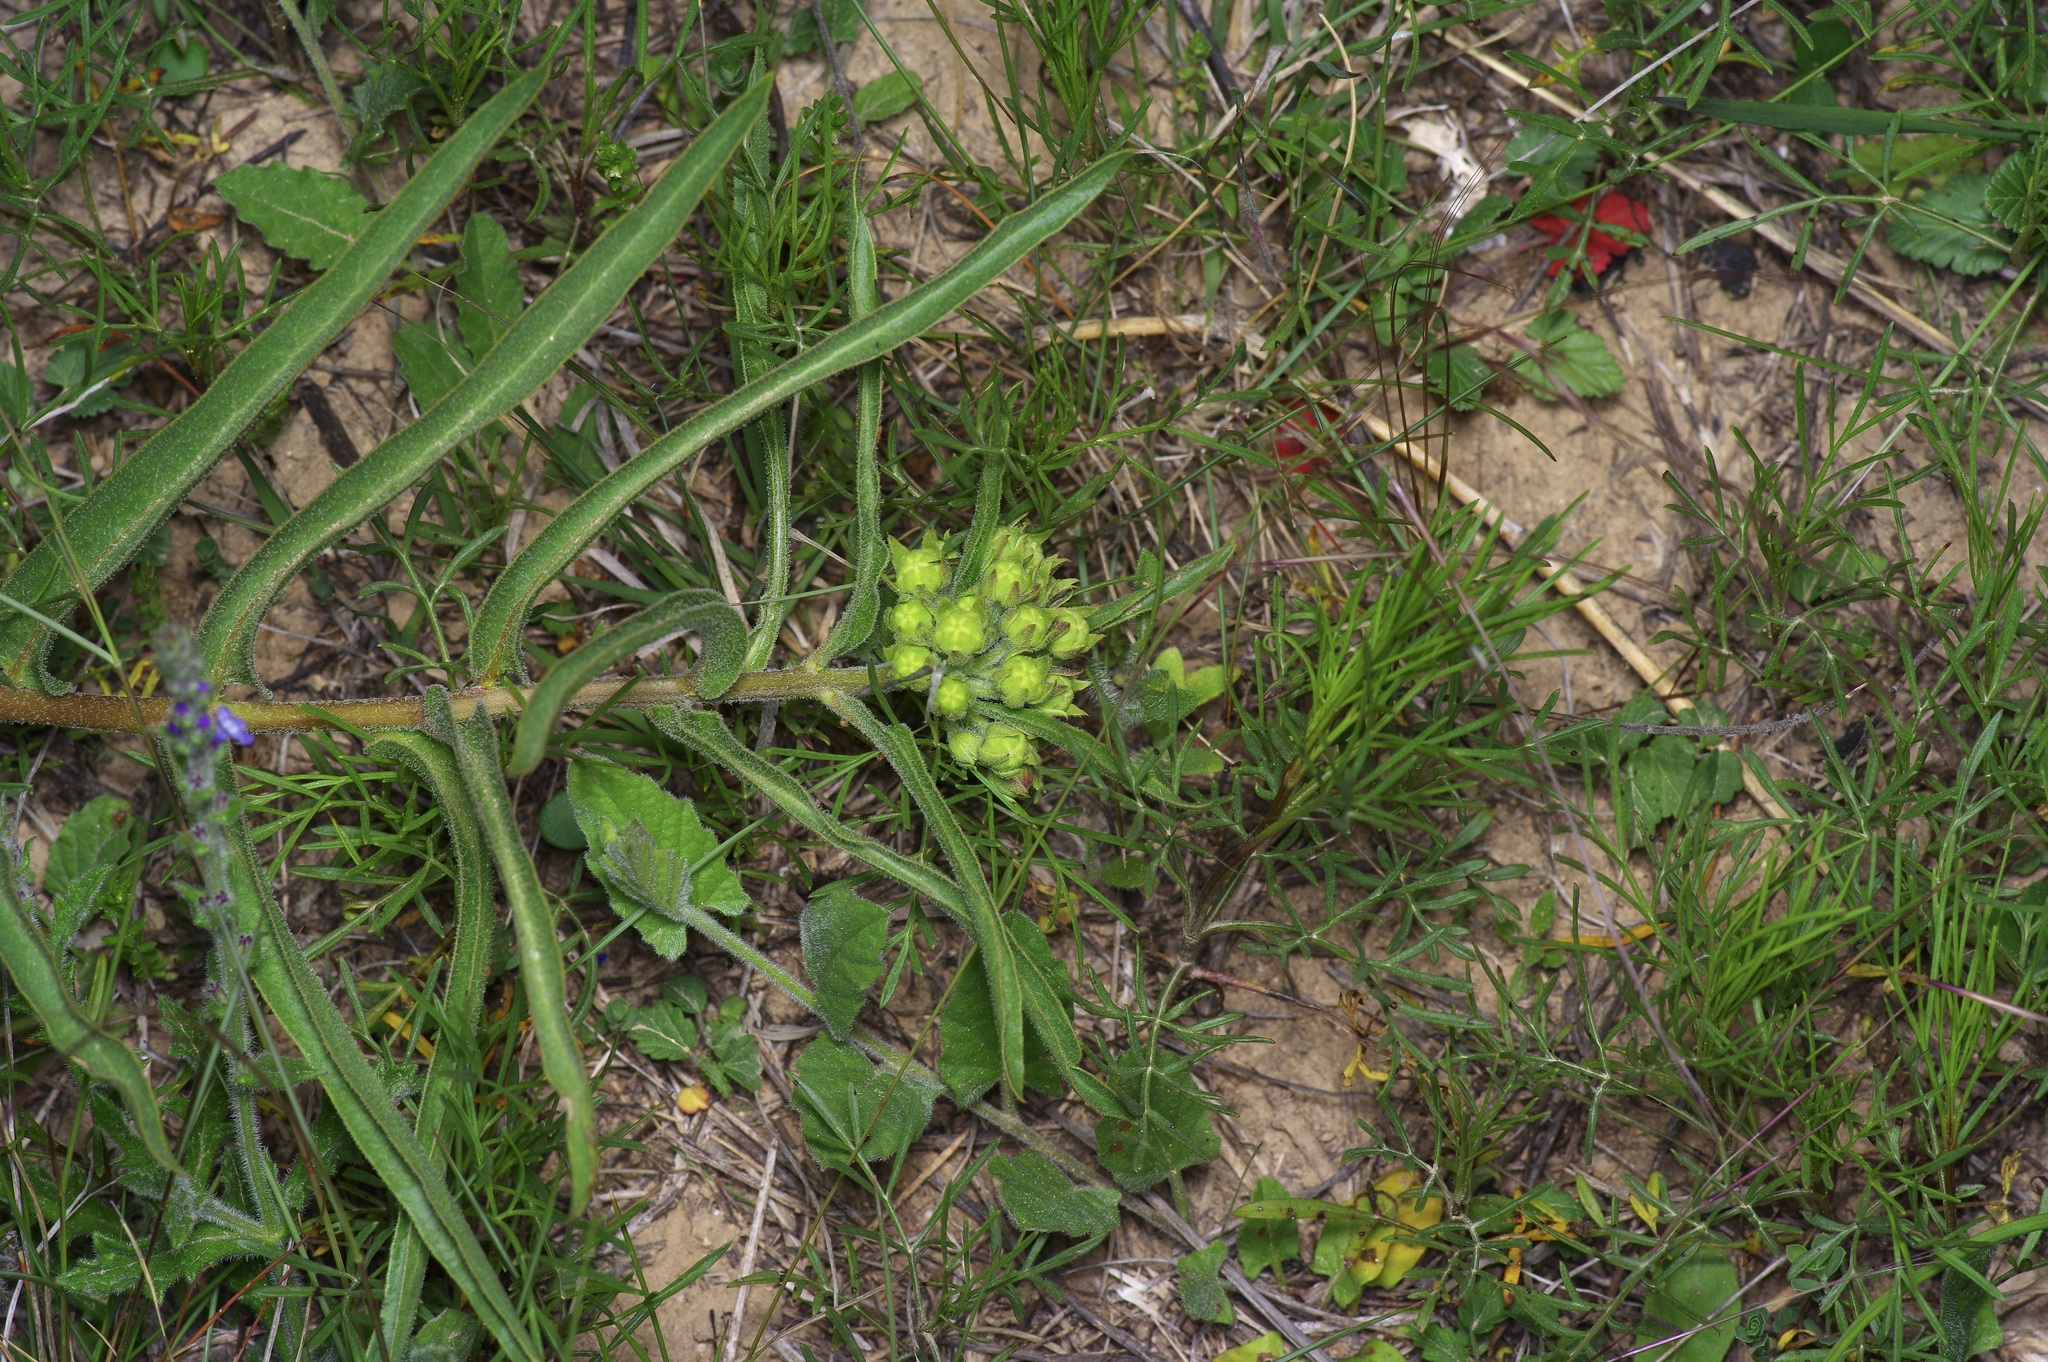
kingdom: Plantae
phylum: Tracheophyta
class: Magnoliopsida
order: Gentianales
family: Apocynaceae
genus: Asclepias
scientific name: Asclepias asperula
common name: Antelope horns
